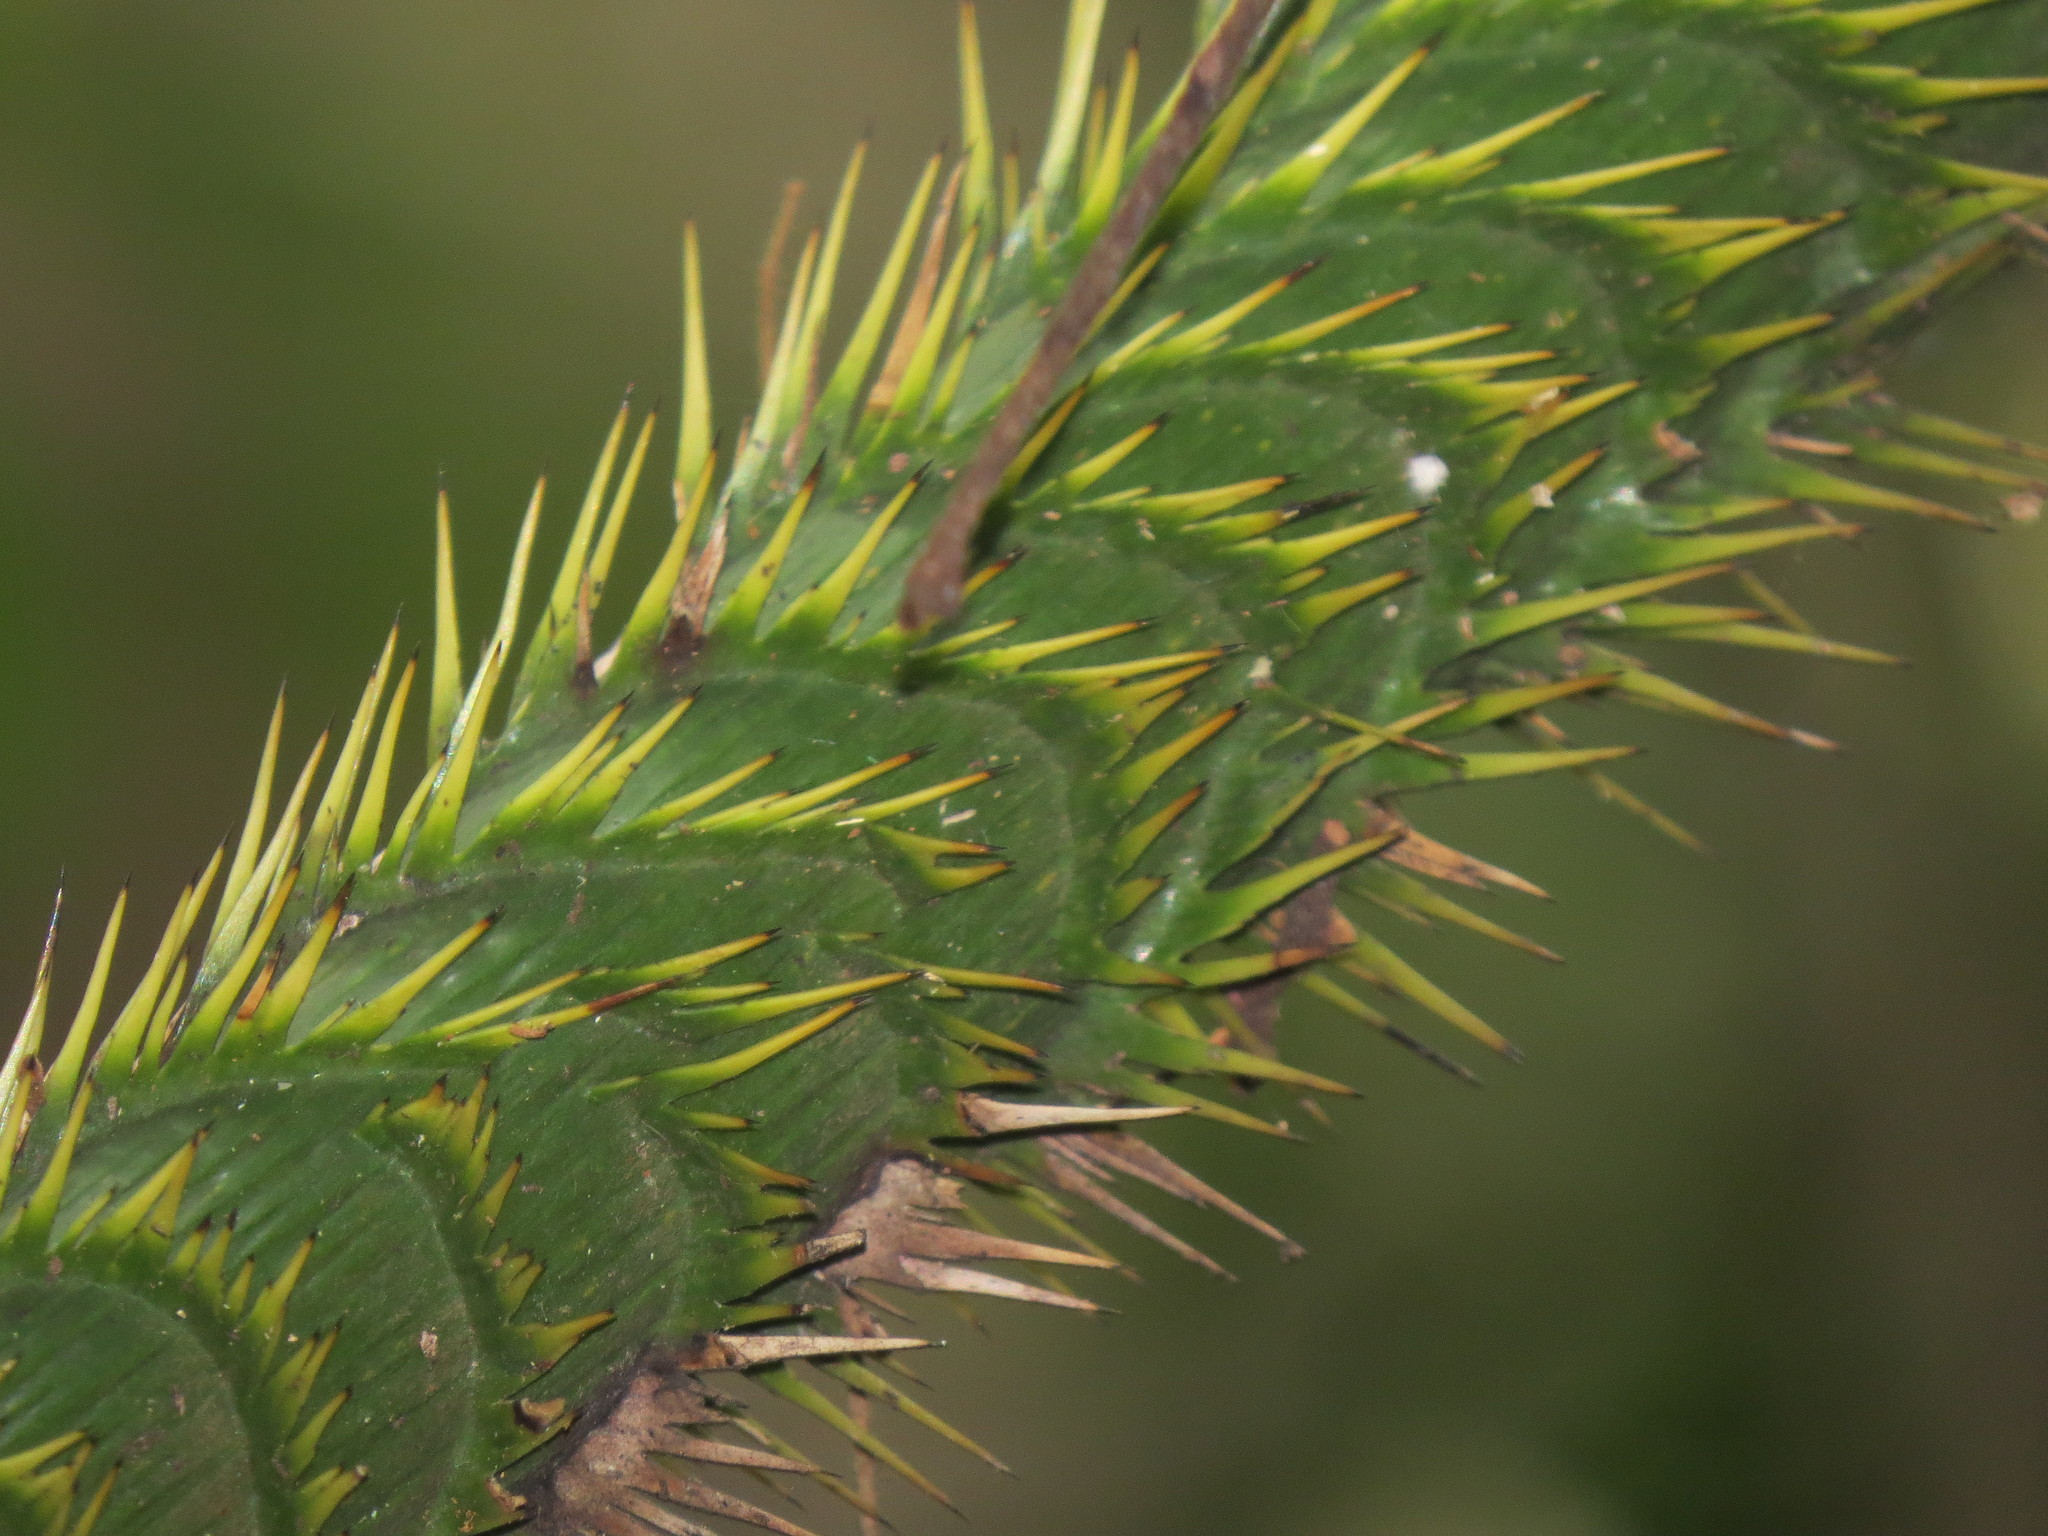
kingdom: Plantae
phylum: Tracheophyta
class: Liliopsida
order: Arecales
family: Arecaceae
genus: Calamus
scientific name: Calamus moti
